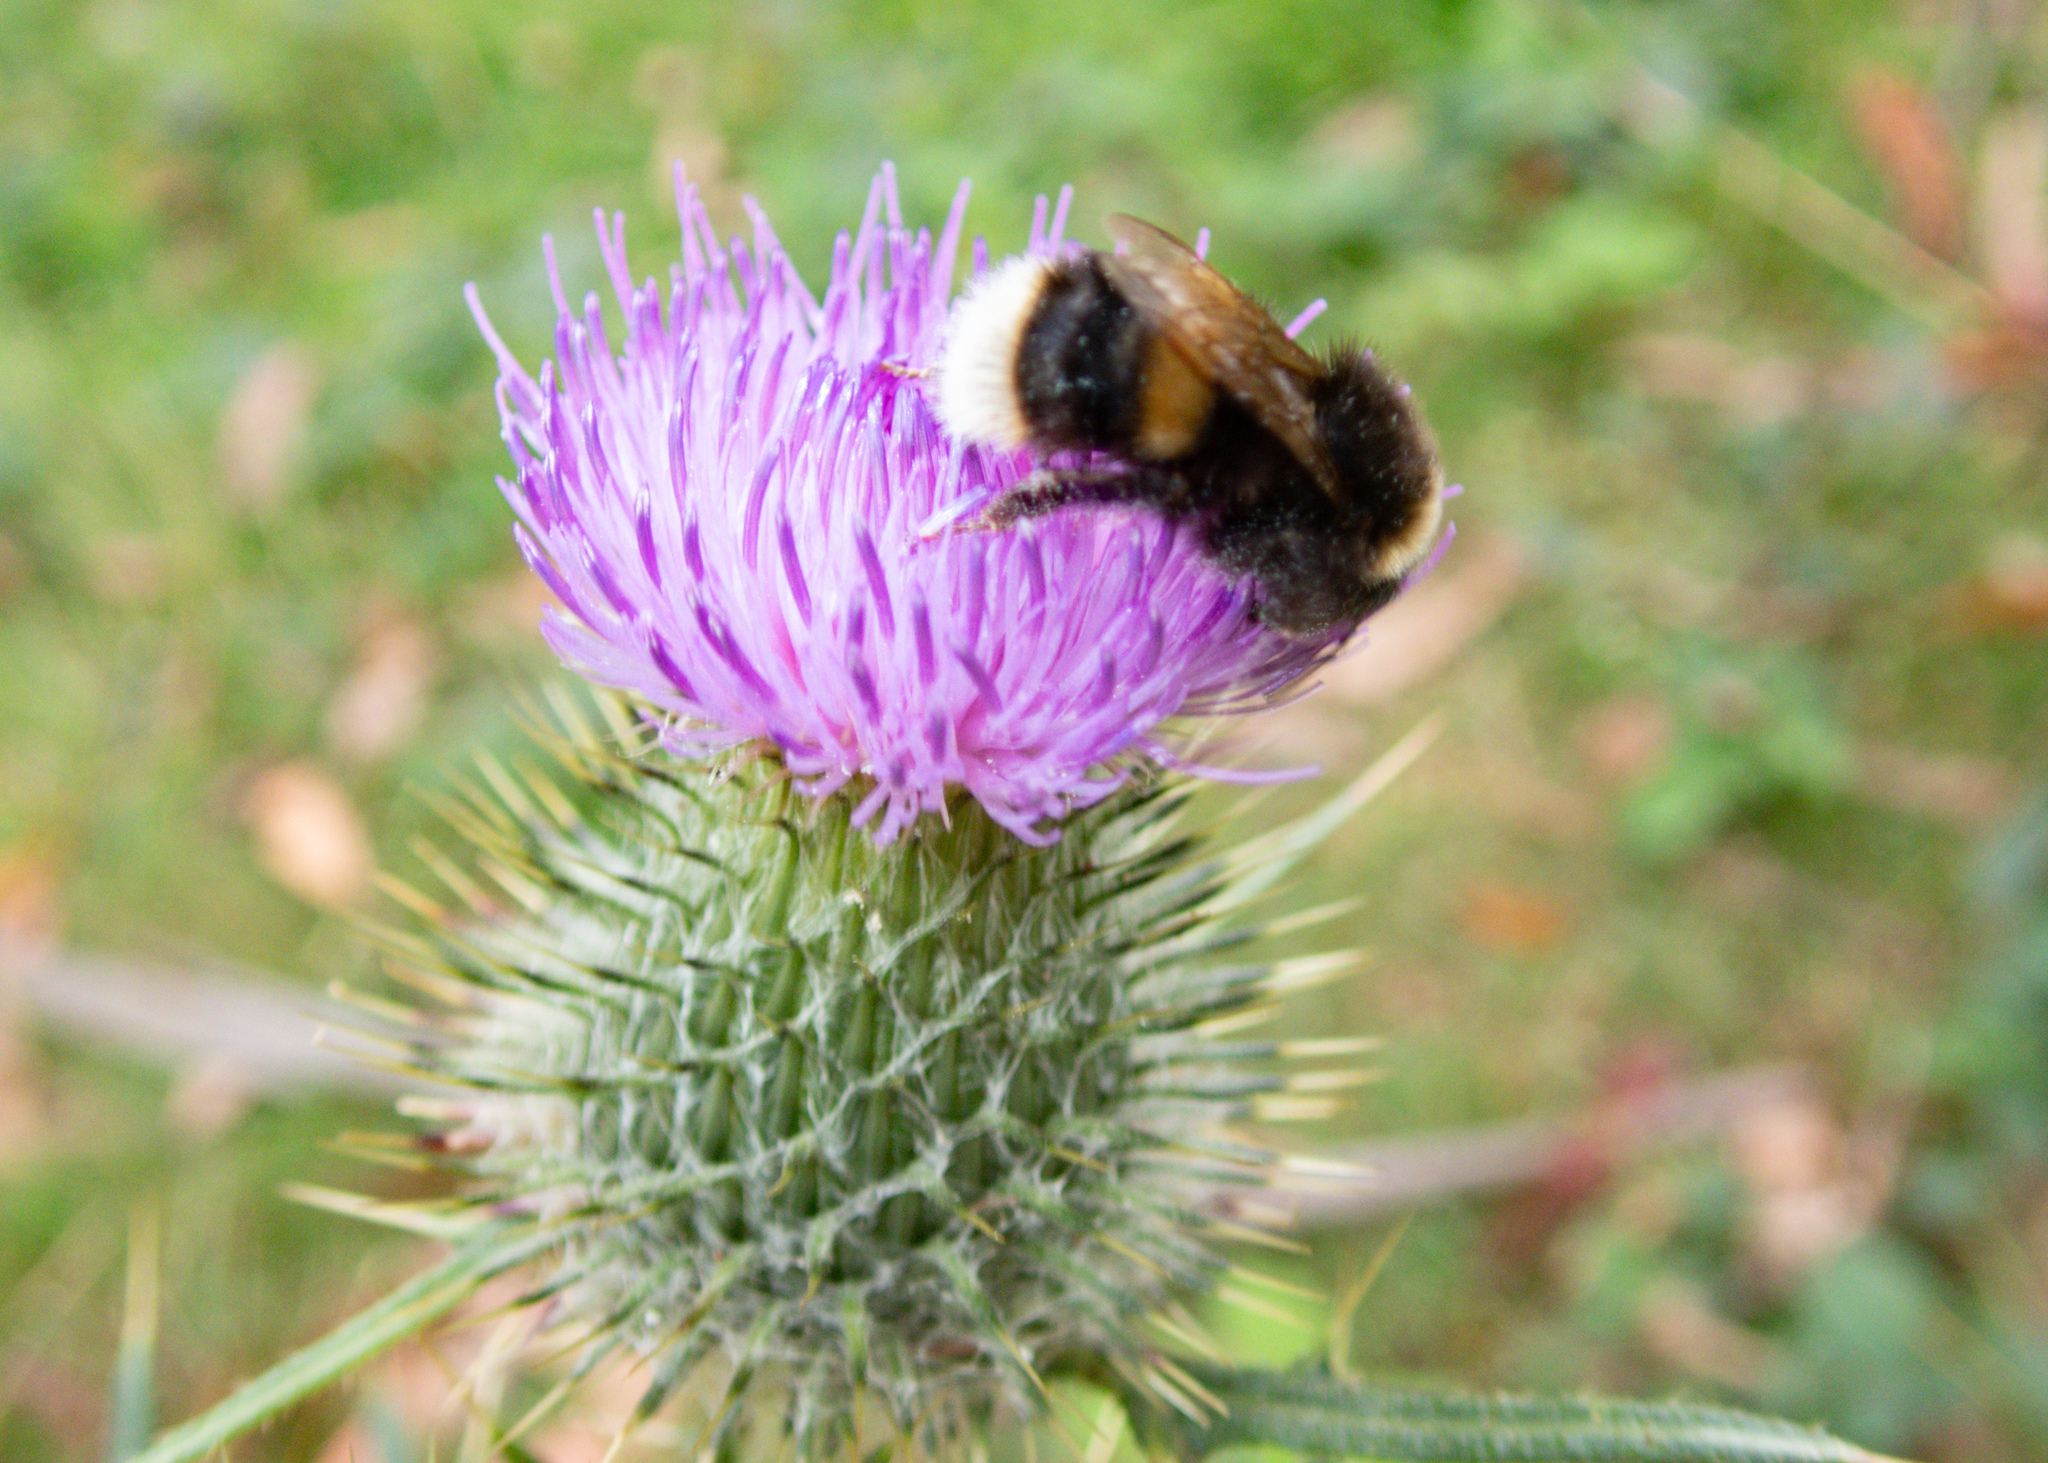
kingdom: Animalia
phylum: Arthropoda
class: Insecta
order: Hymenoptera
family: Apidae
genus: Bombus
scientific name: Bombus terrestris
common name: Buff-tailed bumblebee
